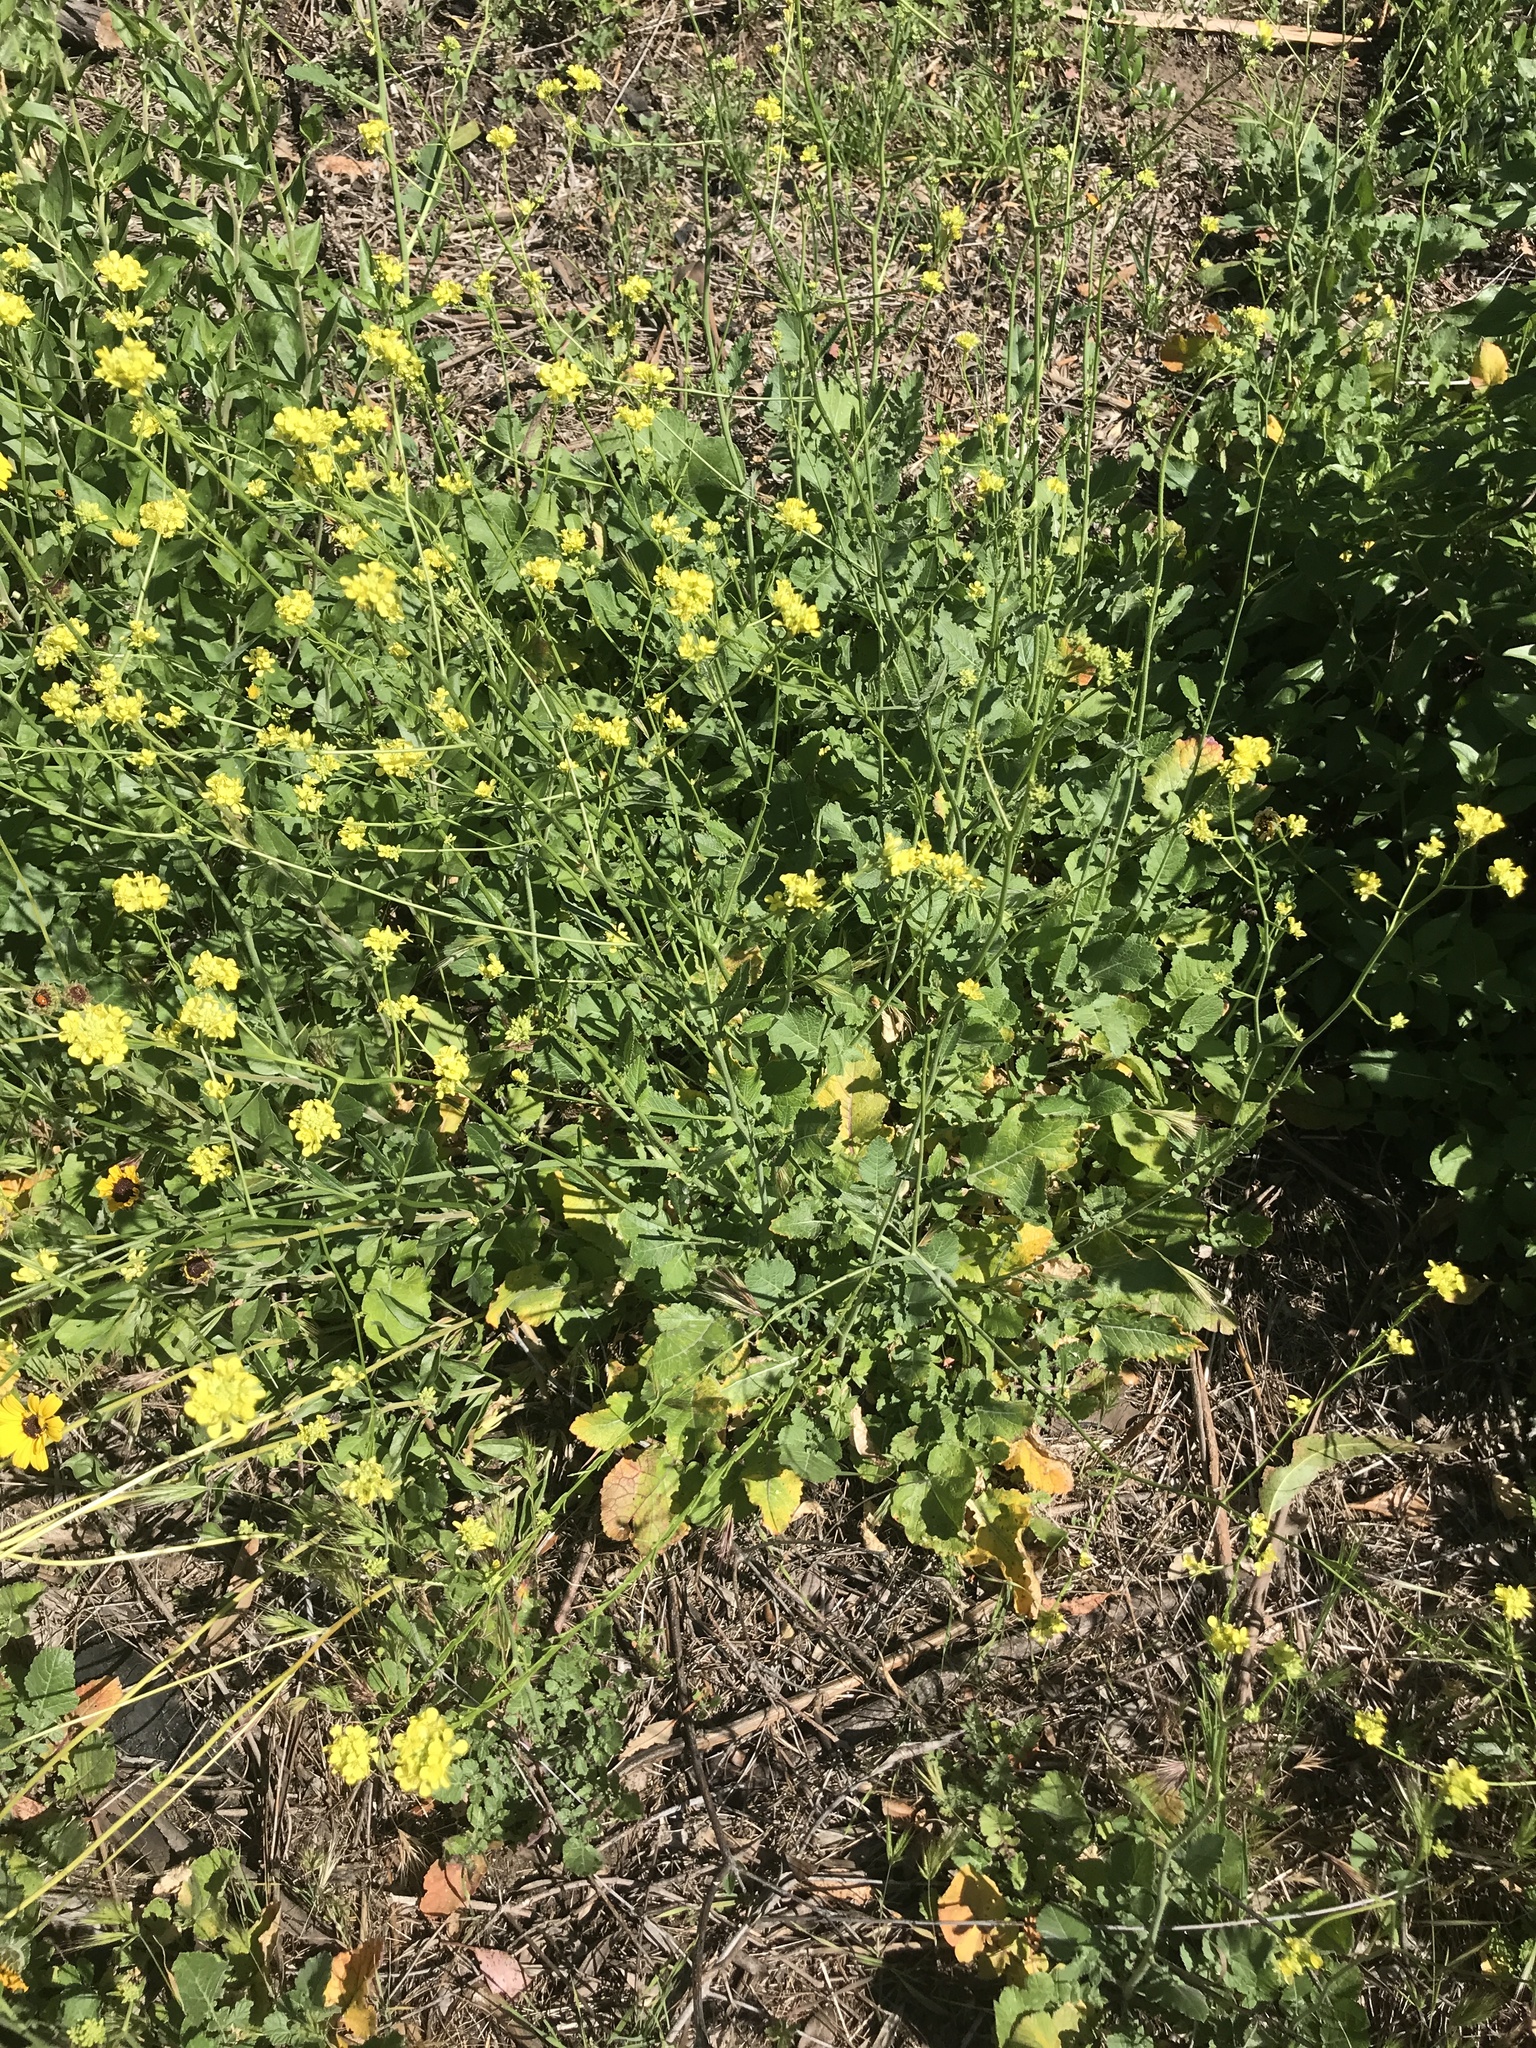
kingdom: Plantae
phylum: Tracheophyta
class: Magnoliopsida
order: Brassicales
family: Brassicaceae
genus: Hirschfeldia
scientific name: Hirschfeldia incana
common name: Hoary mustard
